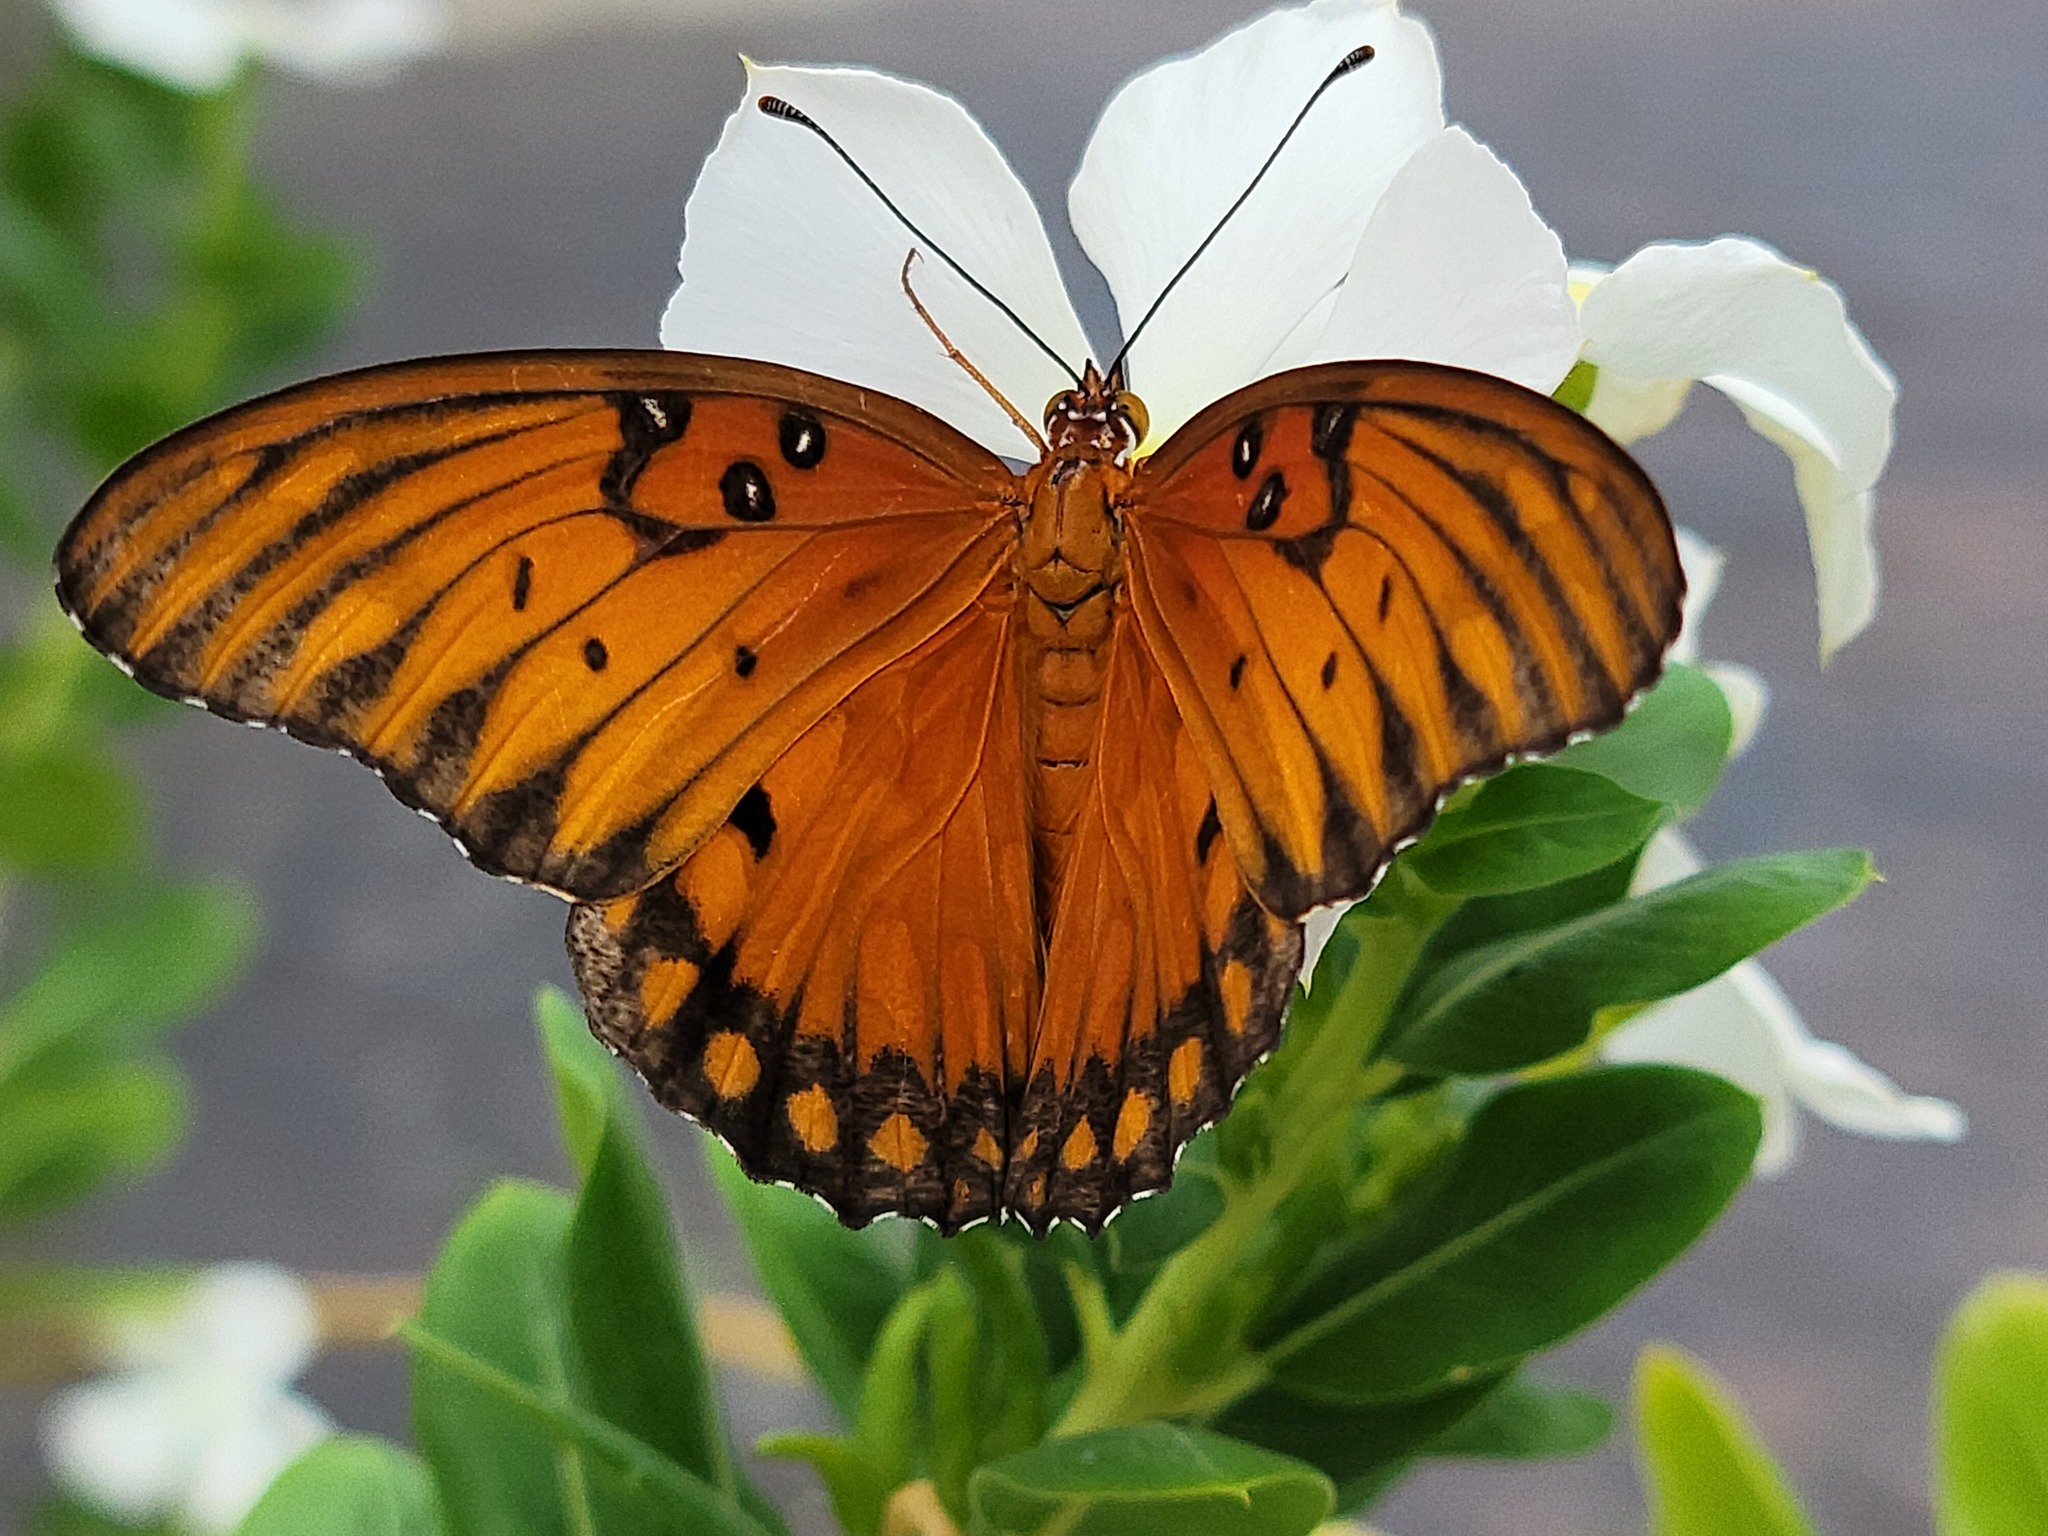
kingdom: Animalia
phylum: Arthropoda
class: Insecta
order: Lepidoptera
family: Nymphalidae
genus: Dione
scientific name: Dione vanillae
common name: Gulf fritillary
